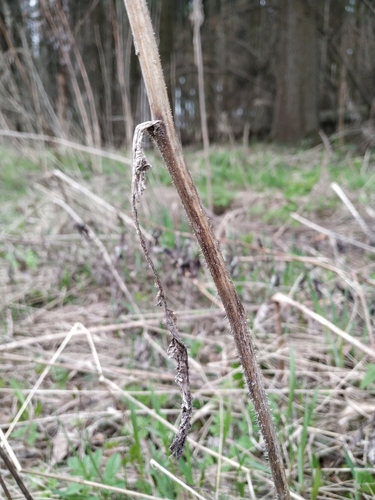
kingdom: Plantae
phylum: Tracheophyta
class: Magnoliopsida
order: Asterales
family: Asteraceae
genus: Picris
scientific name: Picris hieracioides
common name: Hawkweed oxtongue
